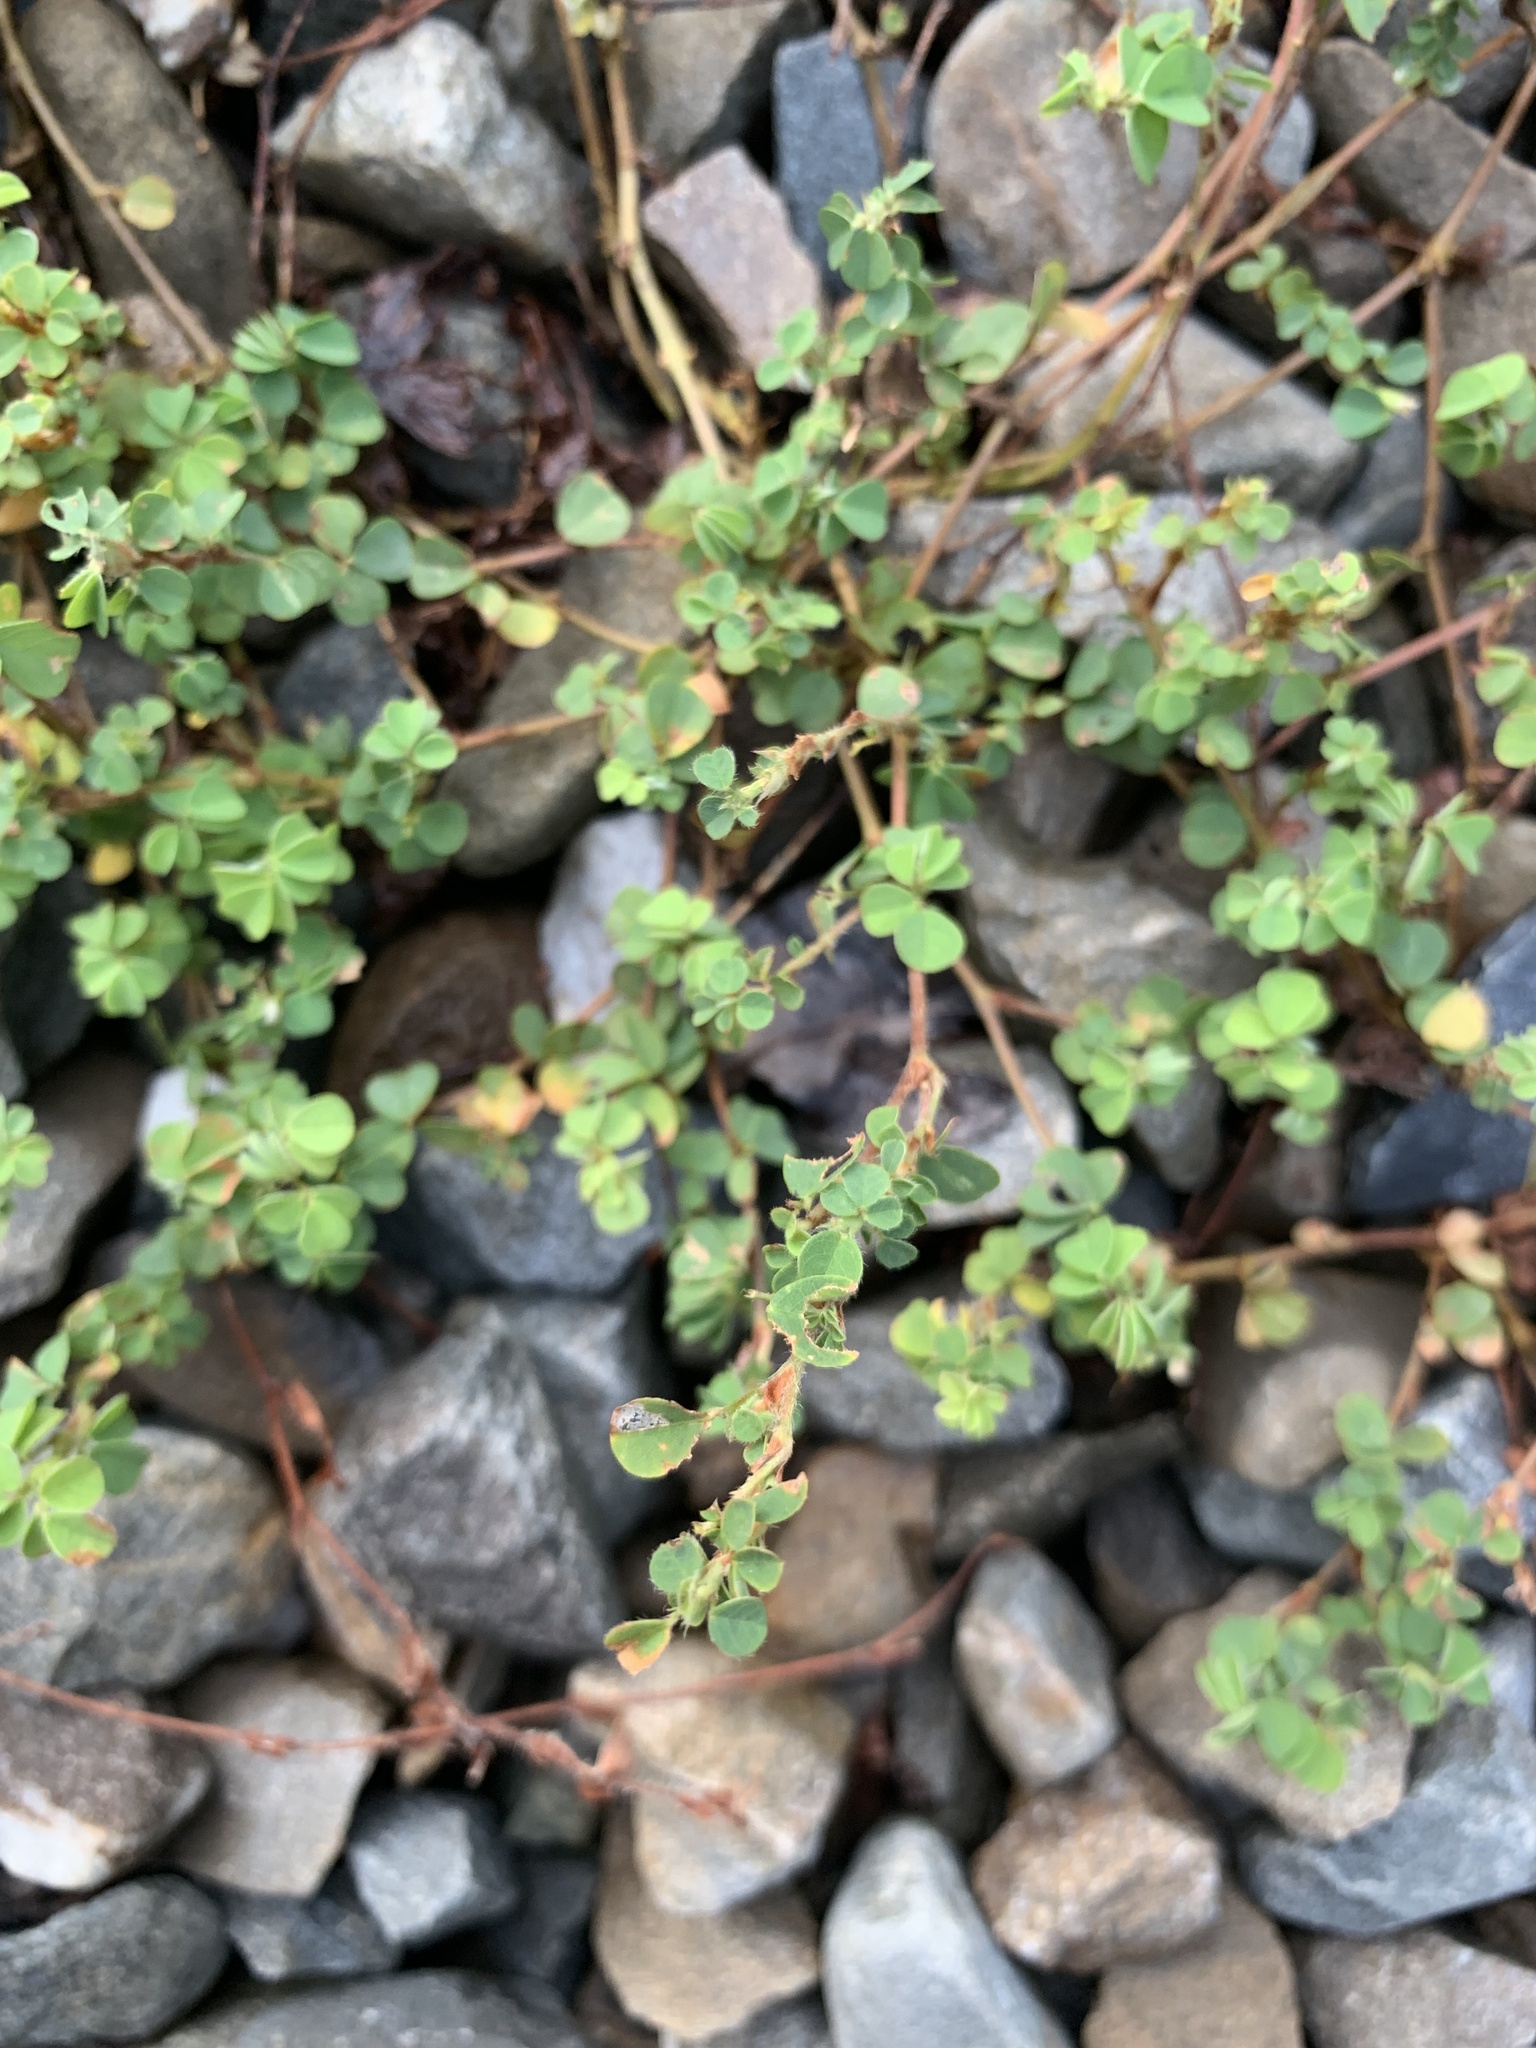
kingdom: Plantae
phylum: Tracheophyta
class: Magnoliopsida
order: Fabales
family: Fabaceae
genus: Grona
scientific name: Grona triflora
